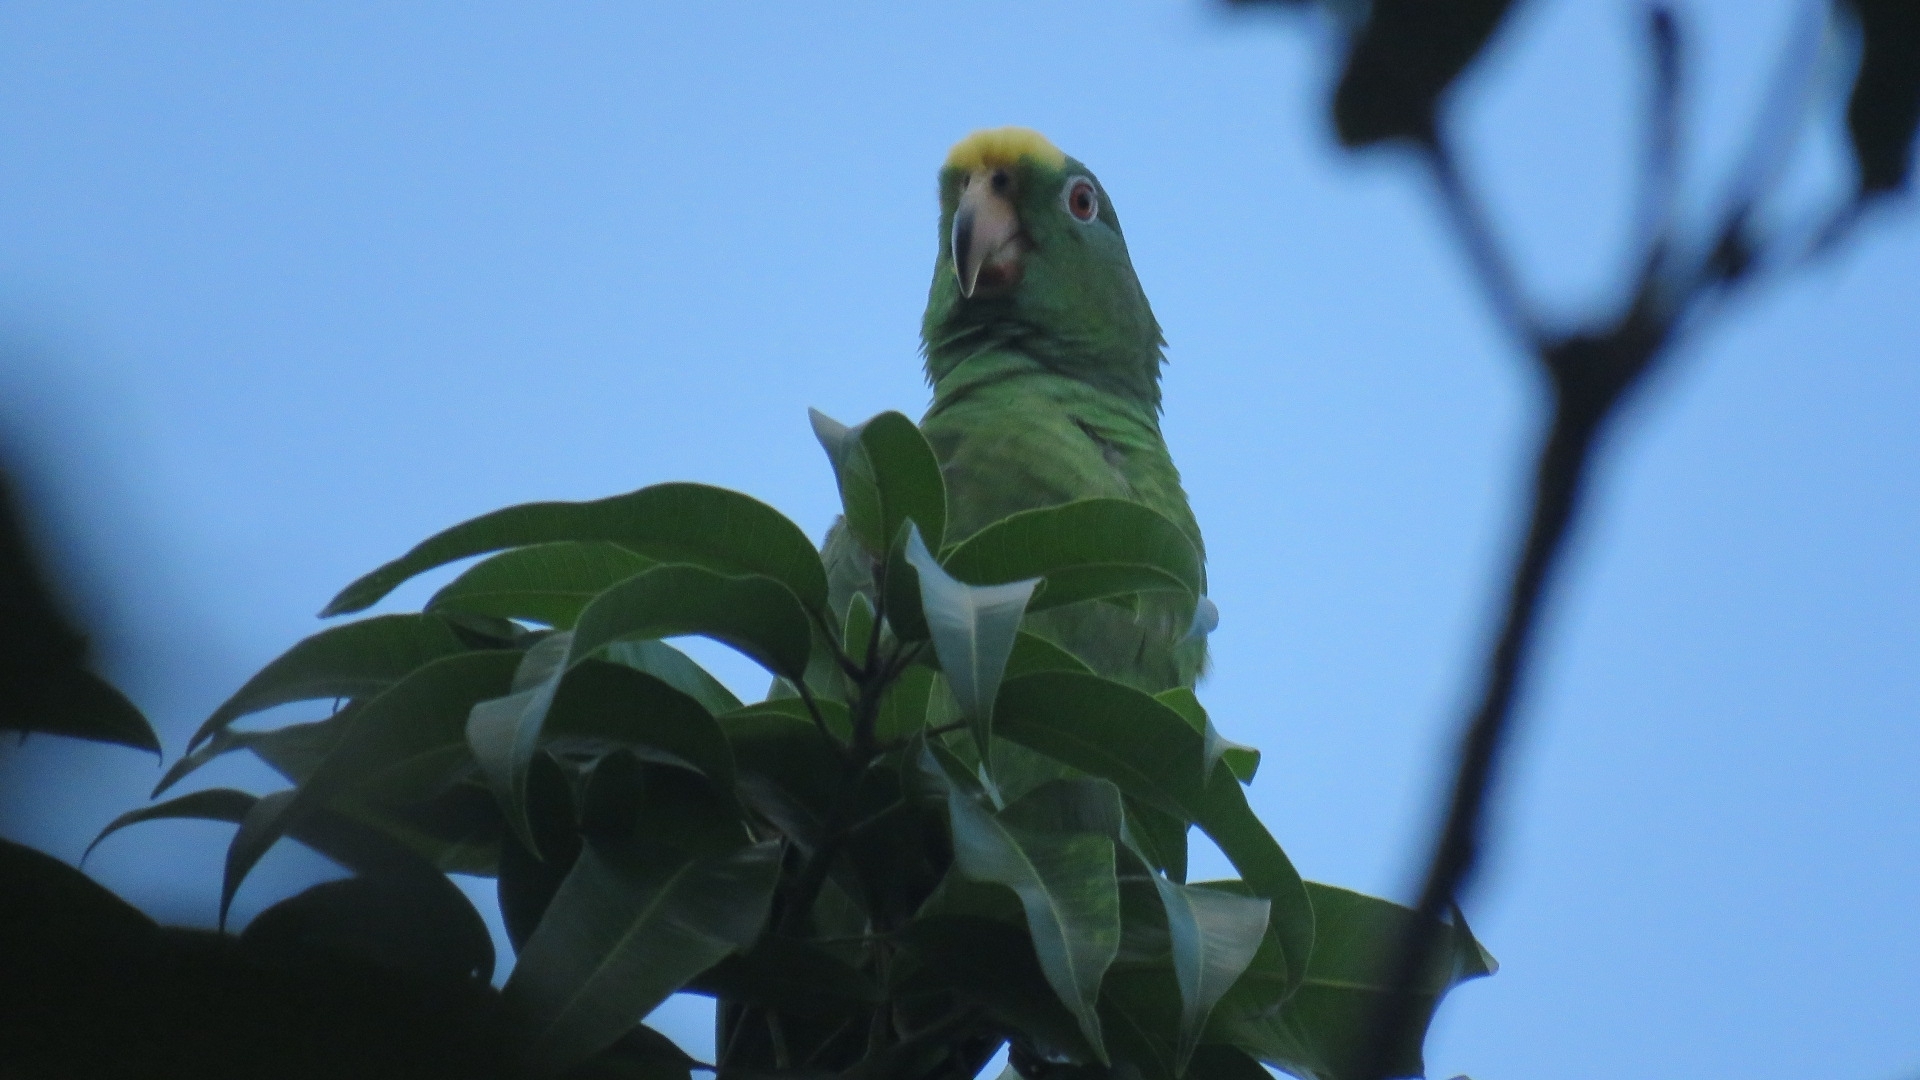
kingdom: Animalia
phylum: Chordata
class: Aves
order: Psittaciformes
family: Psittacidae
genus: Amazona
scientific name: Amazona ochrocephala
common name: Yellow-crowned amazon
